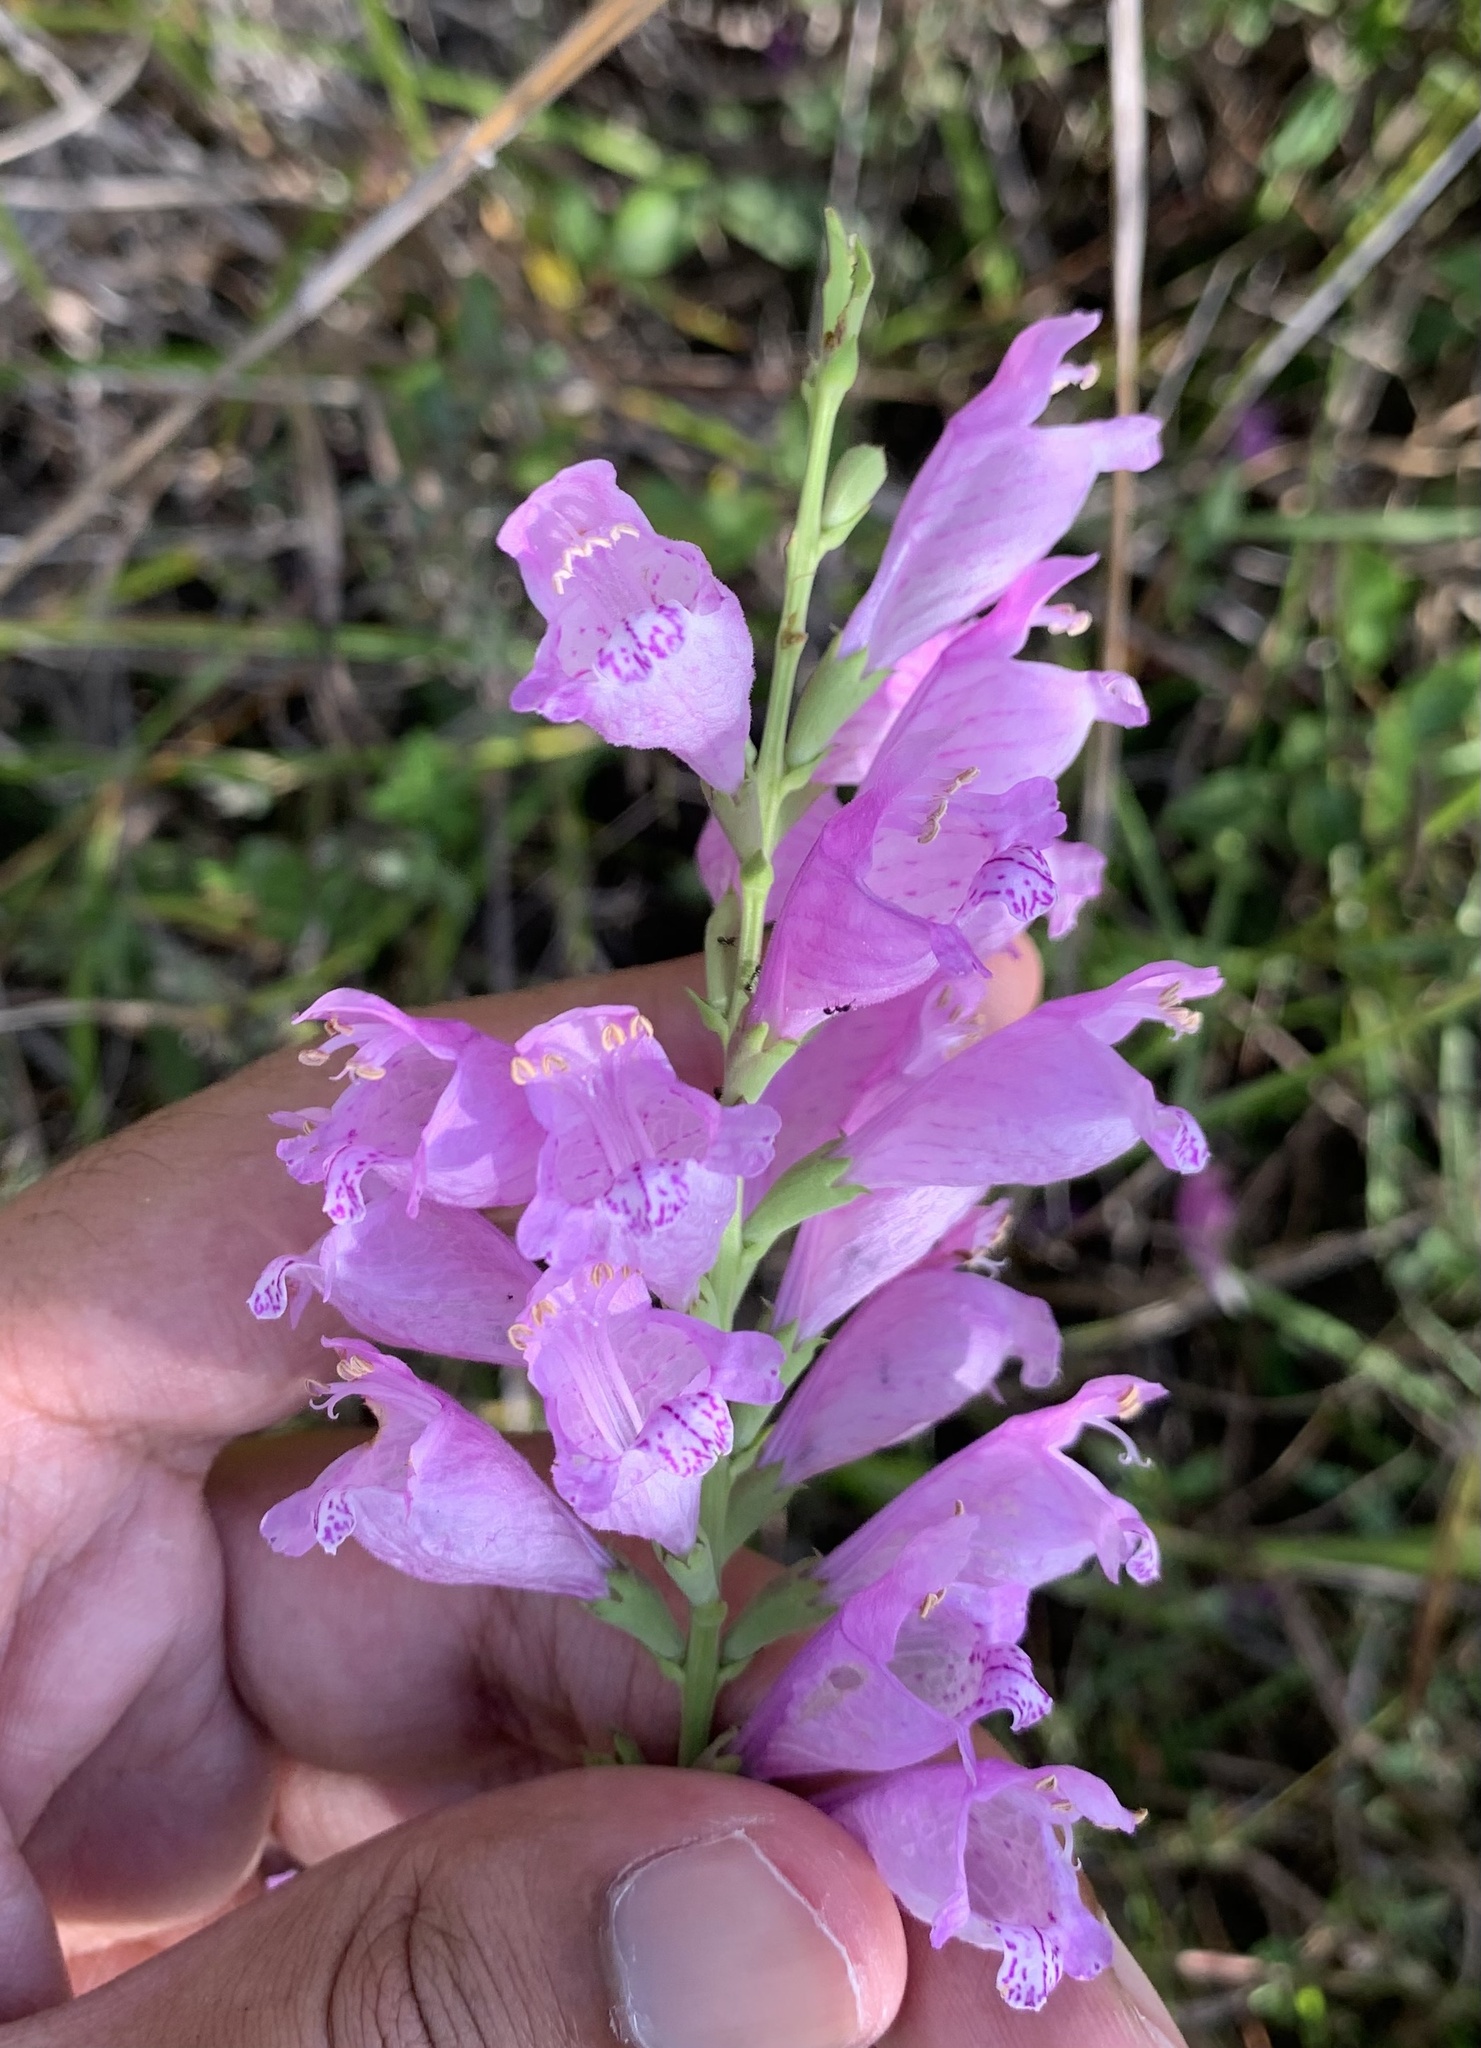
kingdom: Plantae
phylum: Tracheophyta
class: Magnoliopsida
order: Lamiales
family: Lamiaceae
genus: Physostegia
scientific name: Physostegia virginiana
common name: Obedient-plant
